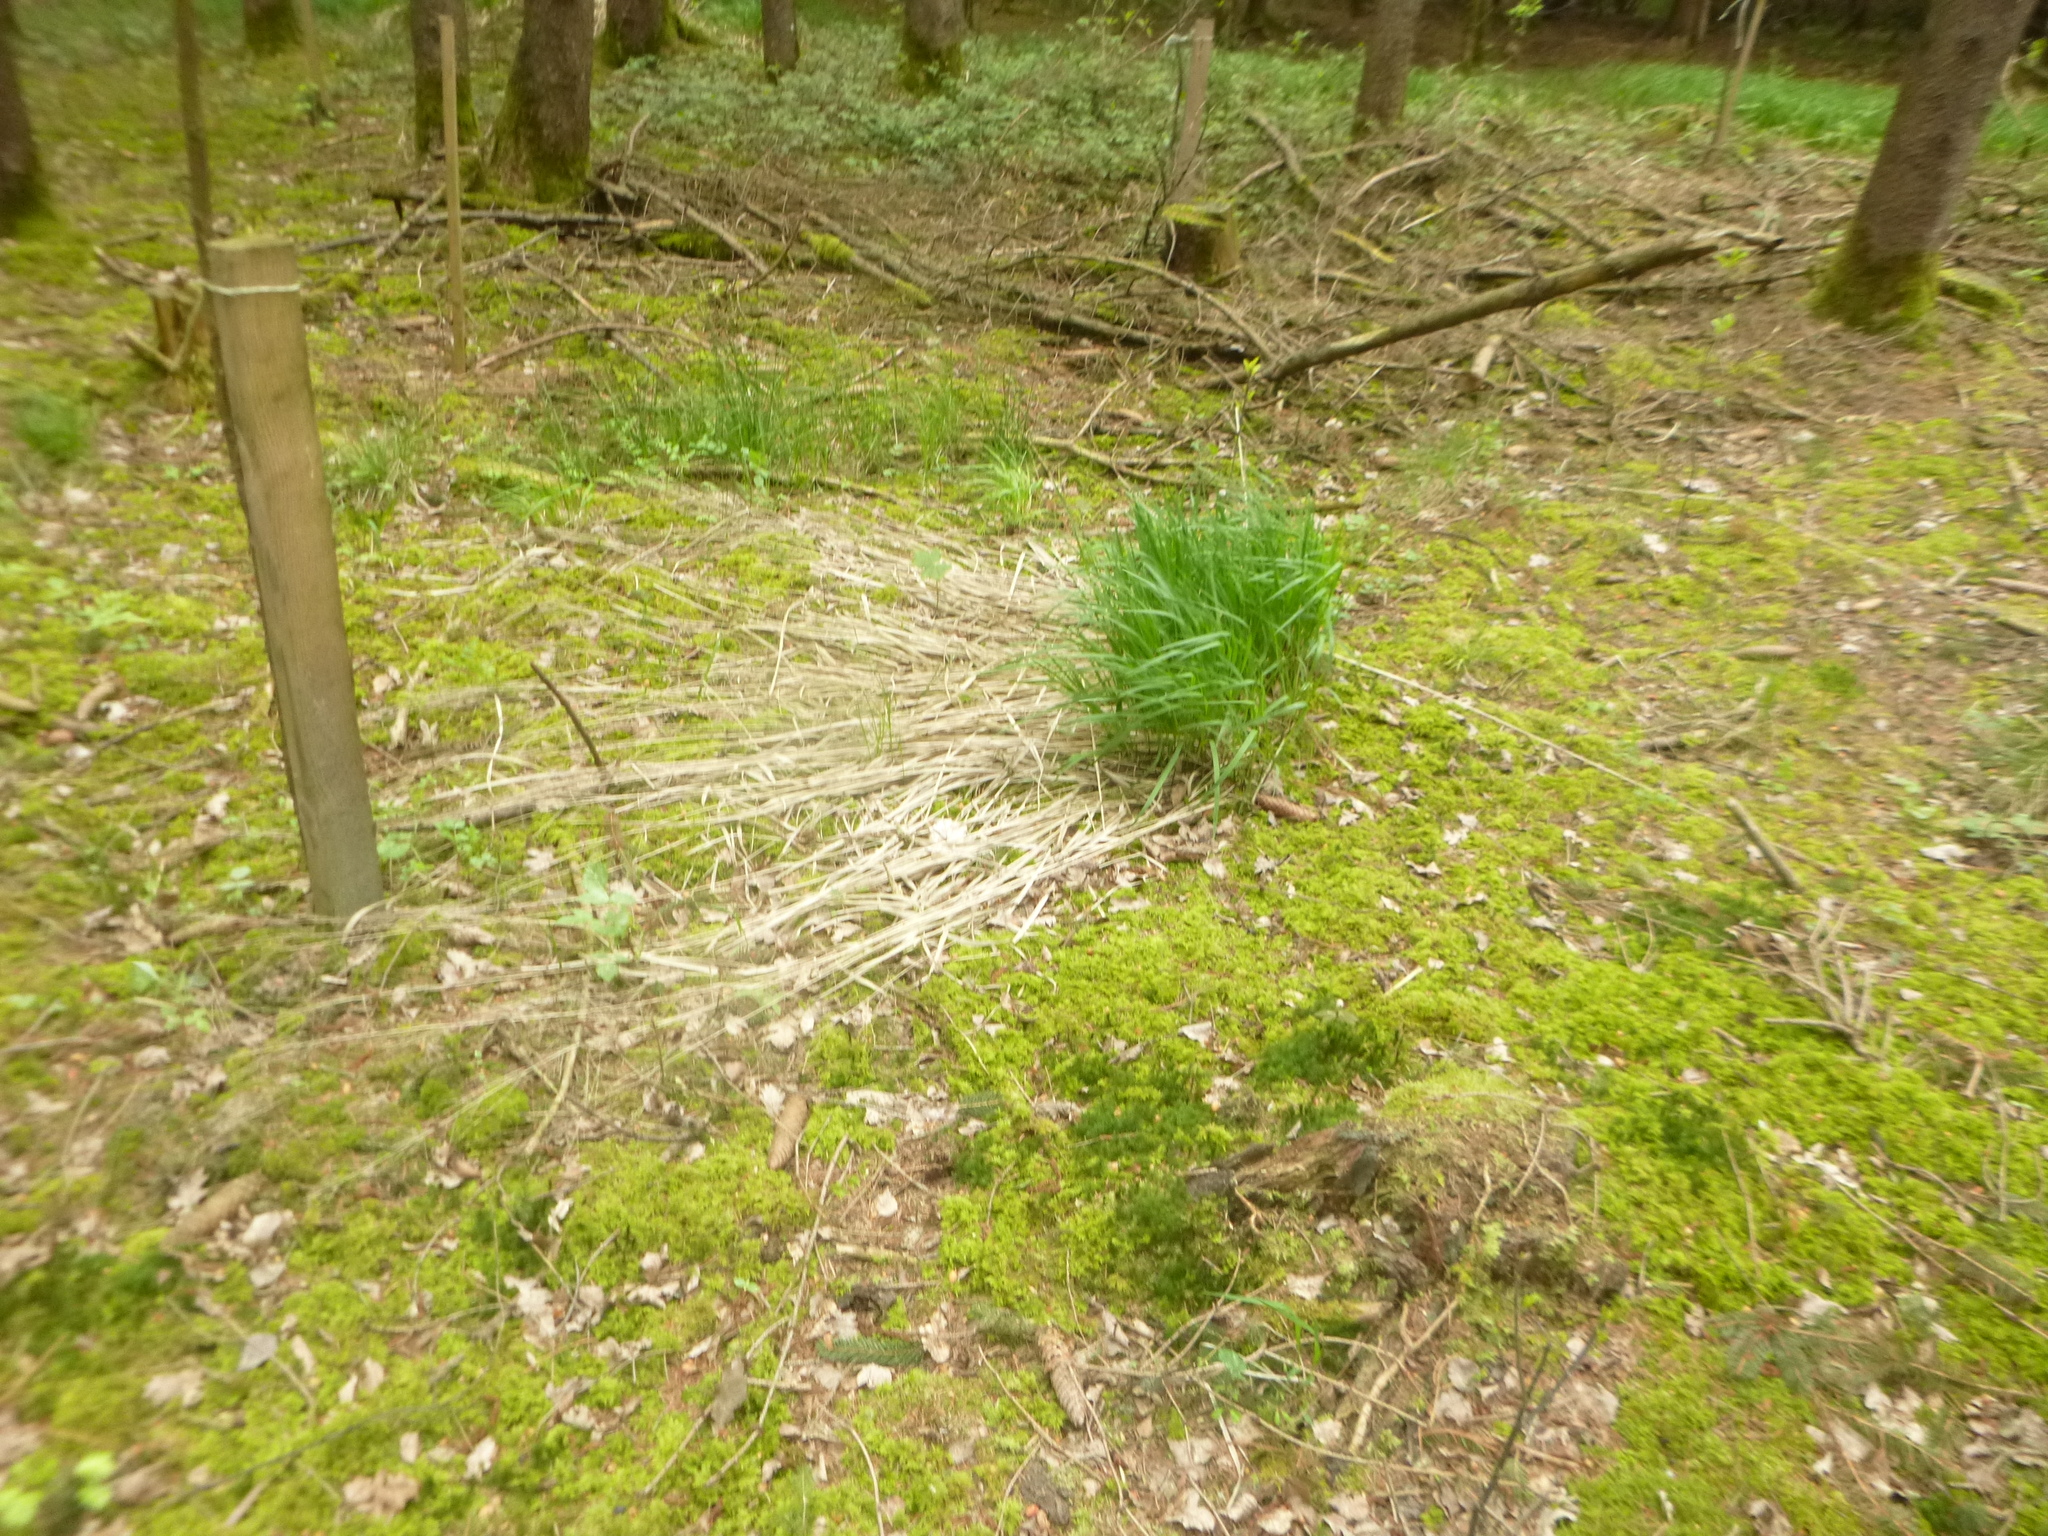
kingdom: Plantae
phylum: Tracheophyta
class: Liliopsida
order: Poales
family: Poaceae
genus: Molinia
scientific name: Molinia caerulea
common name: Purple moor-grass
